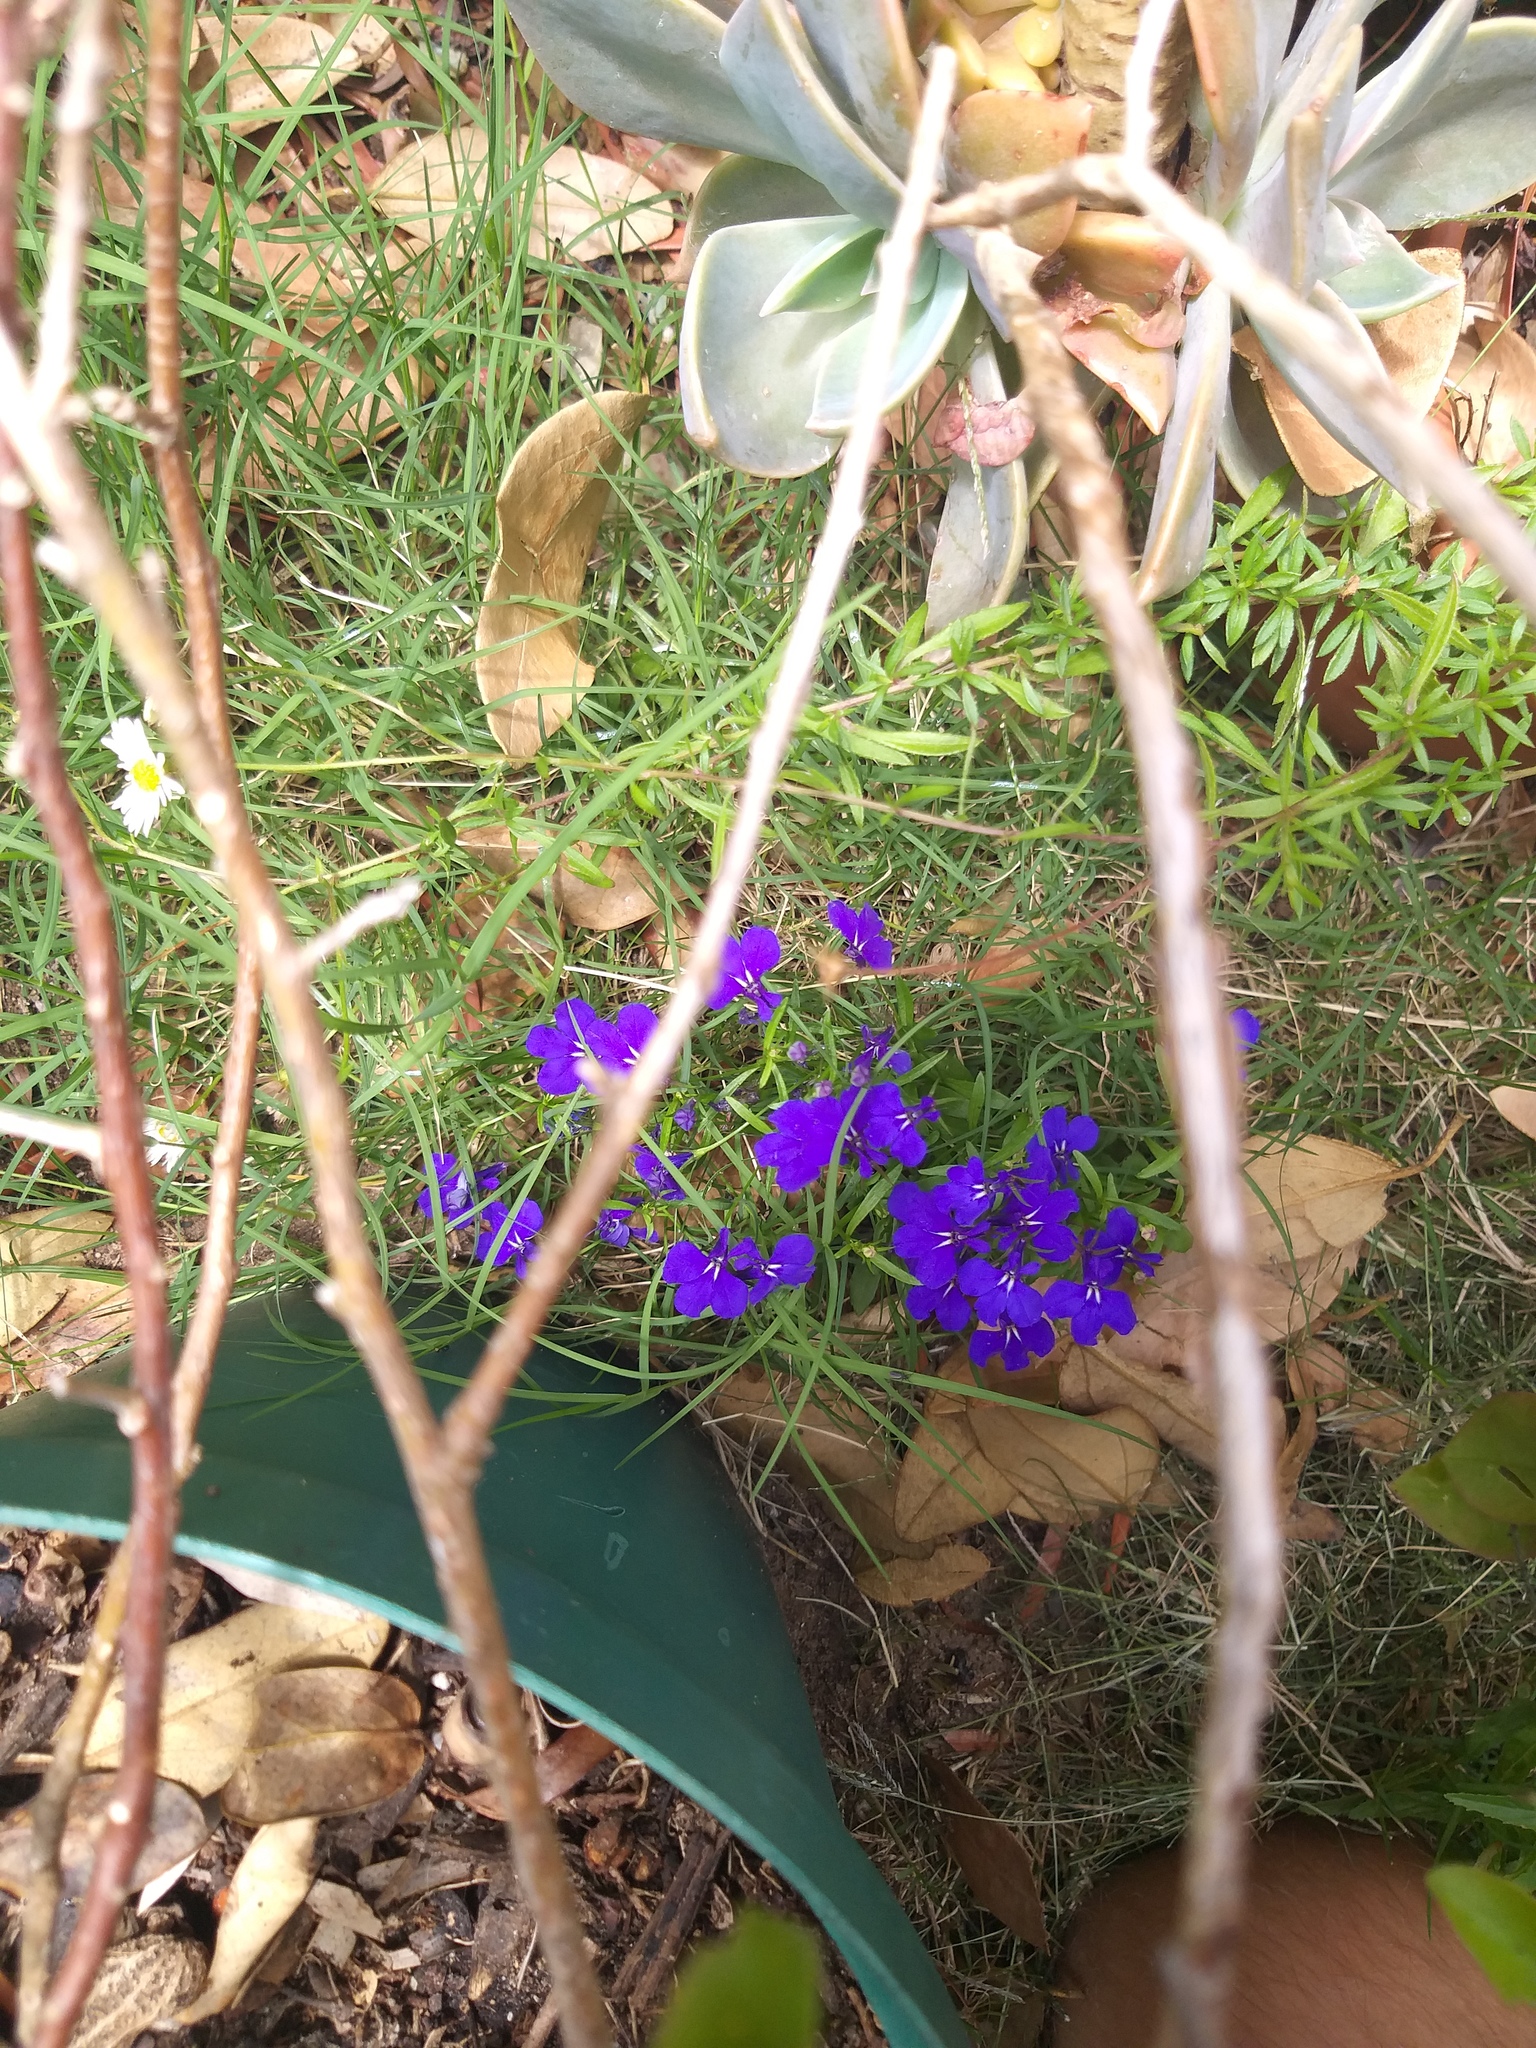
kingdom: Plantae
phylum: Tracheophyta
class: Magnoliopsida
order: Asterales
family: Campanulaceae
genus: Lobelia
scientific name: Lobelia erinus
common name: Edging lobelia
